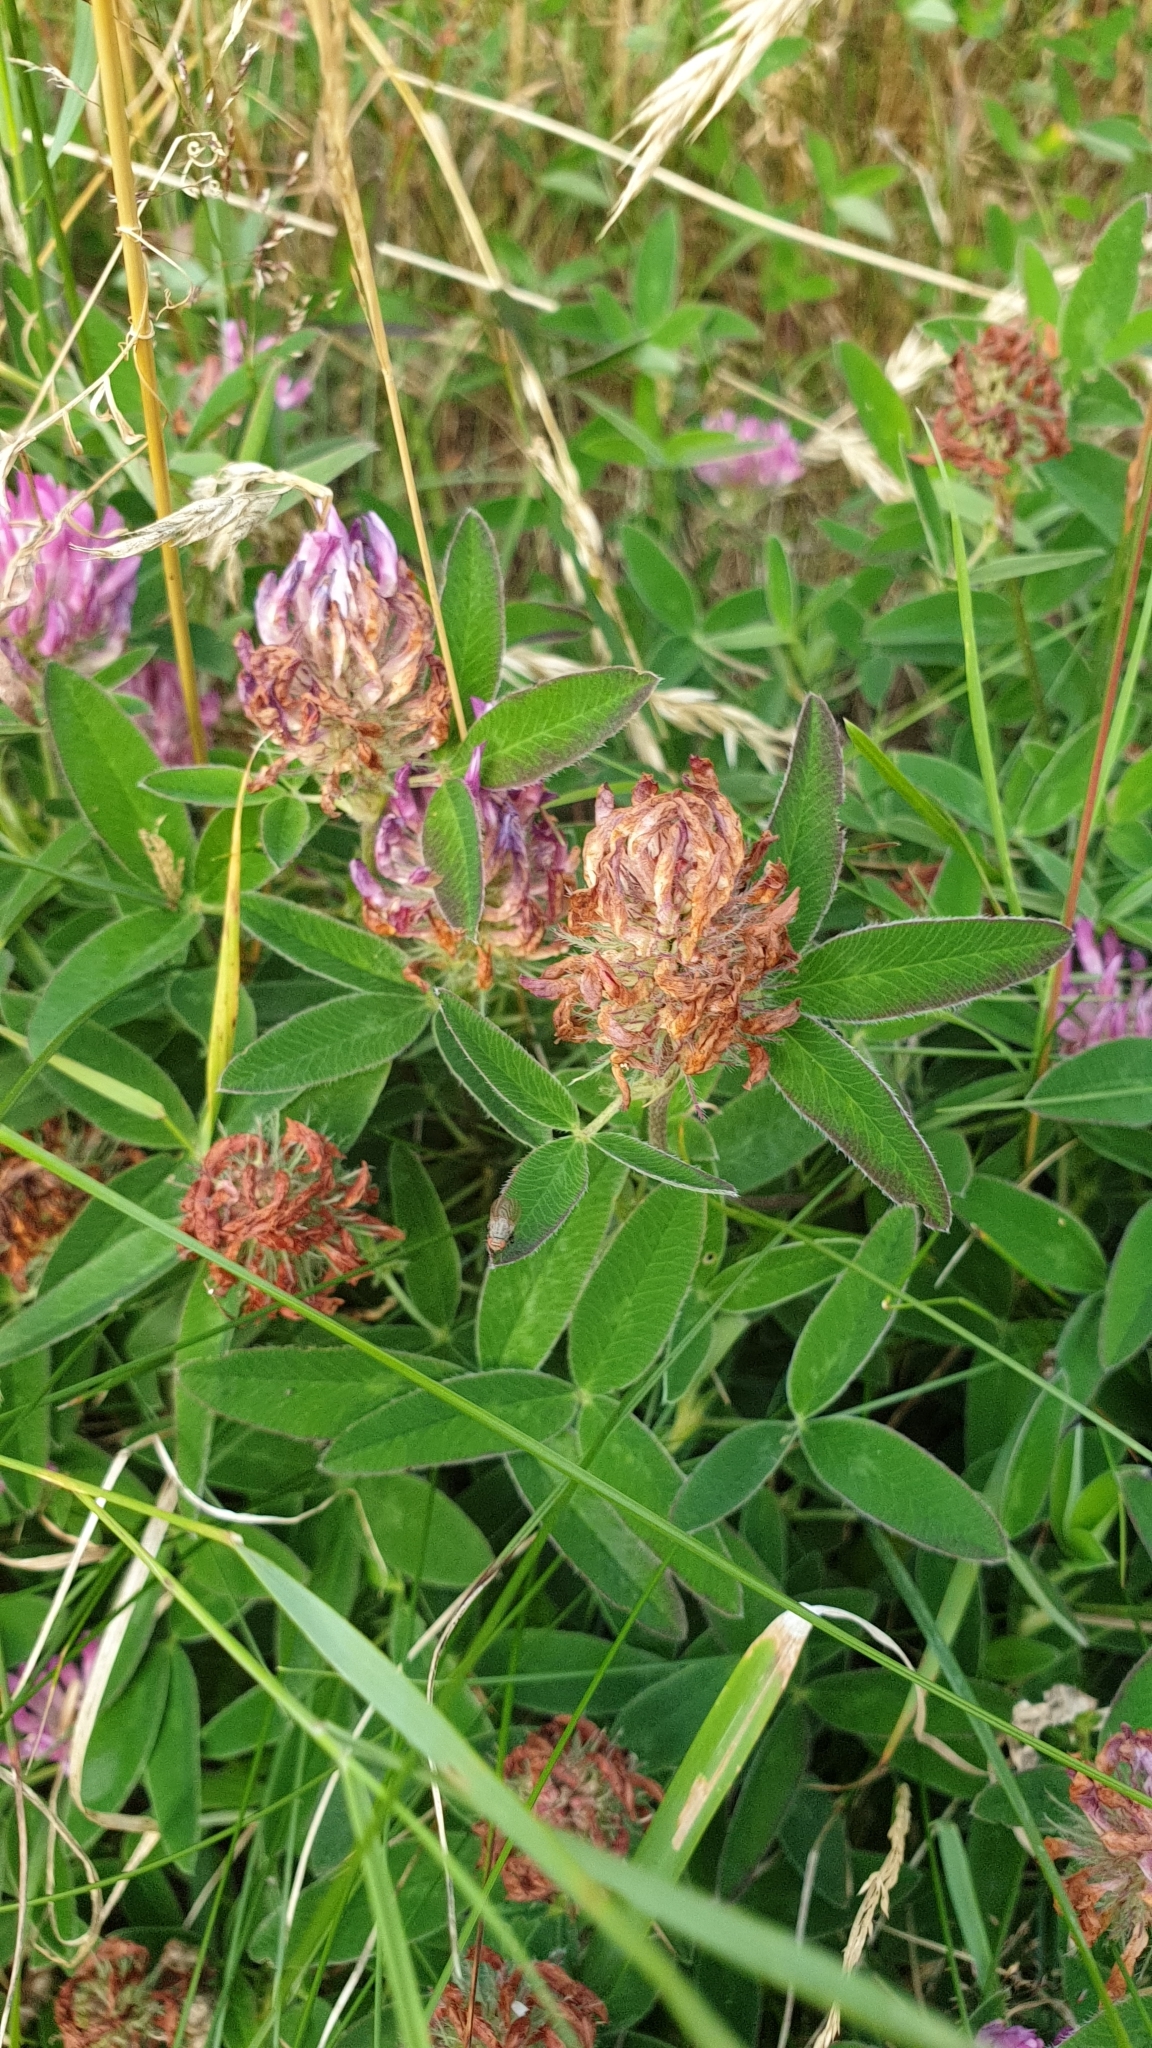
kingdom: Plantae
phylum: Tracheophyta
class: Magnoliopsida
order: Fabales
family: Fabaceae
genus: Trifolium
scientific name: Trifolium medium
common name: Zigzag clover
